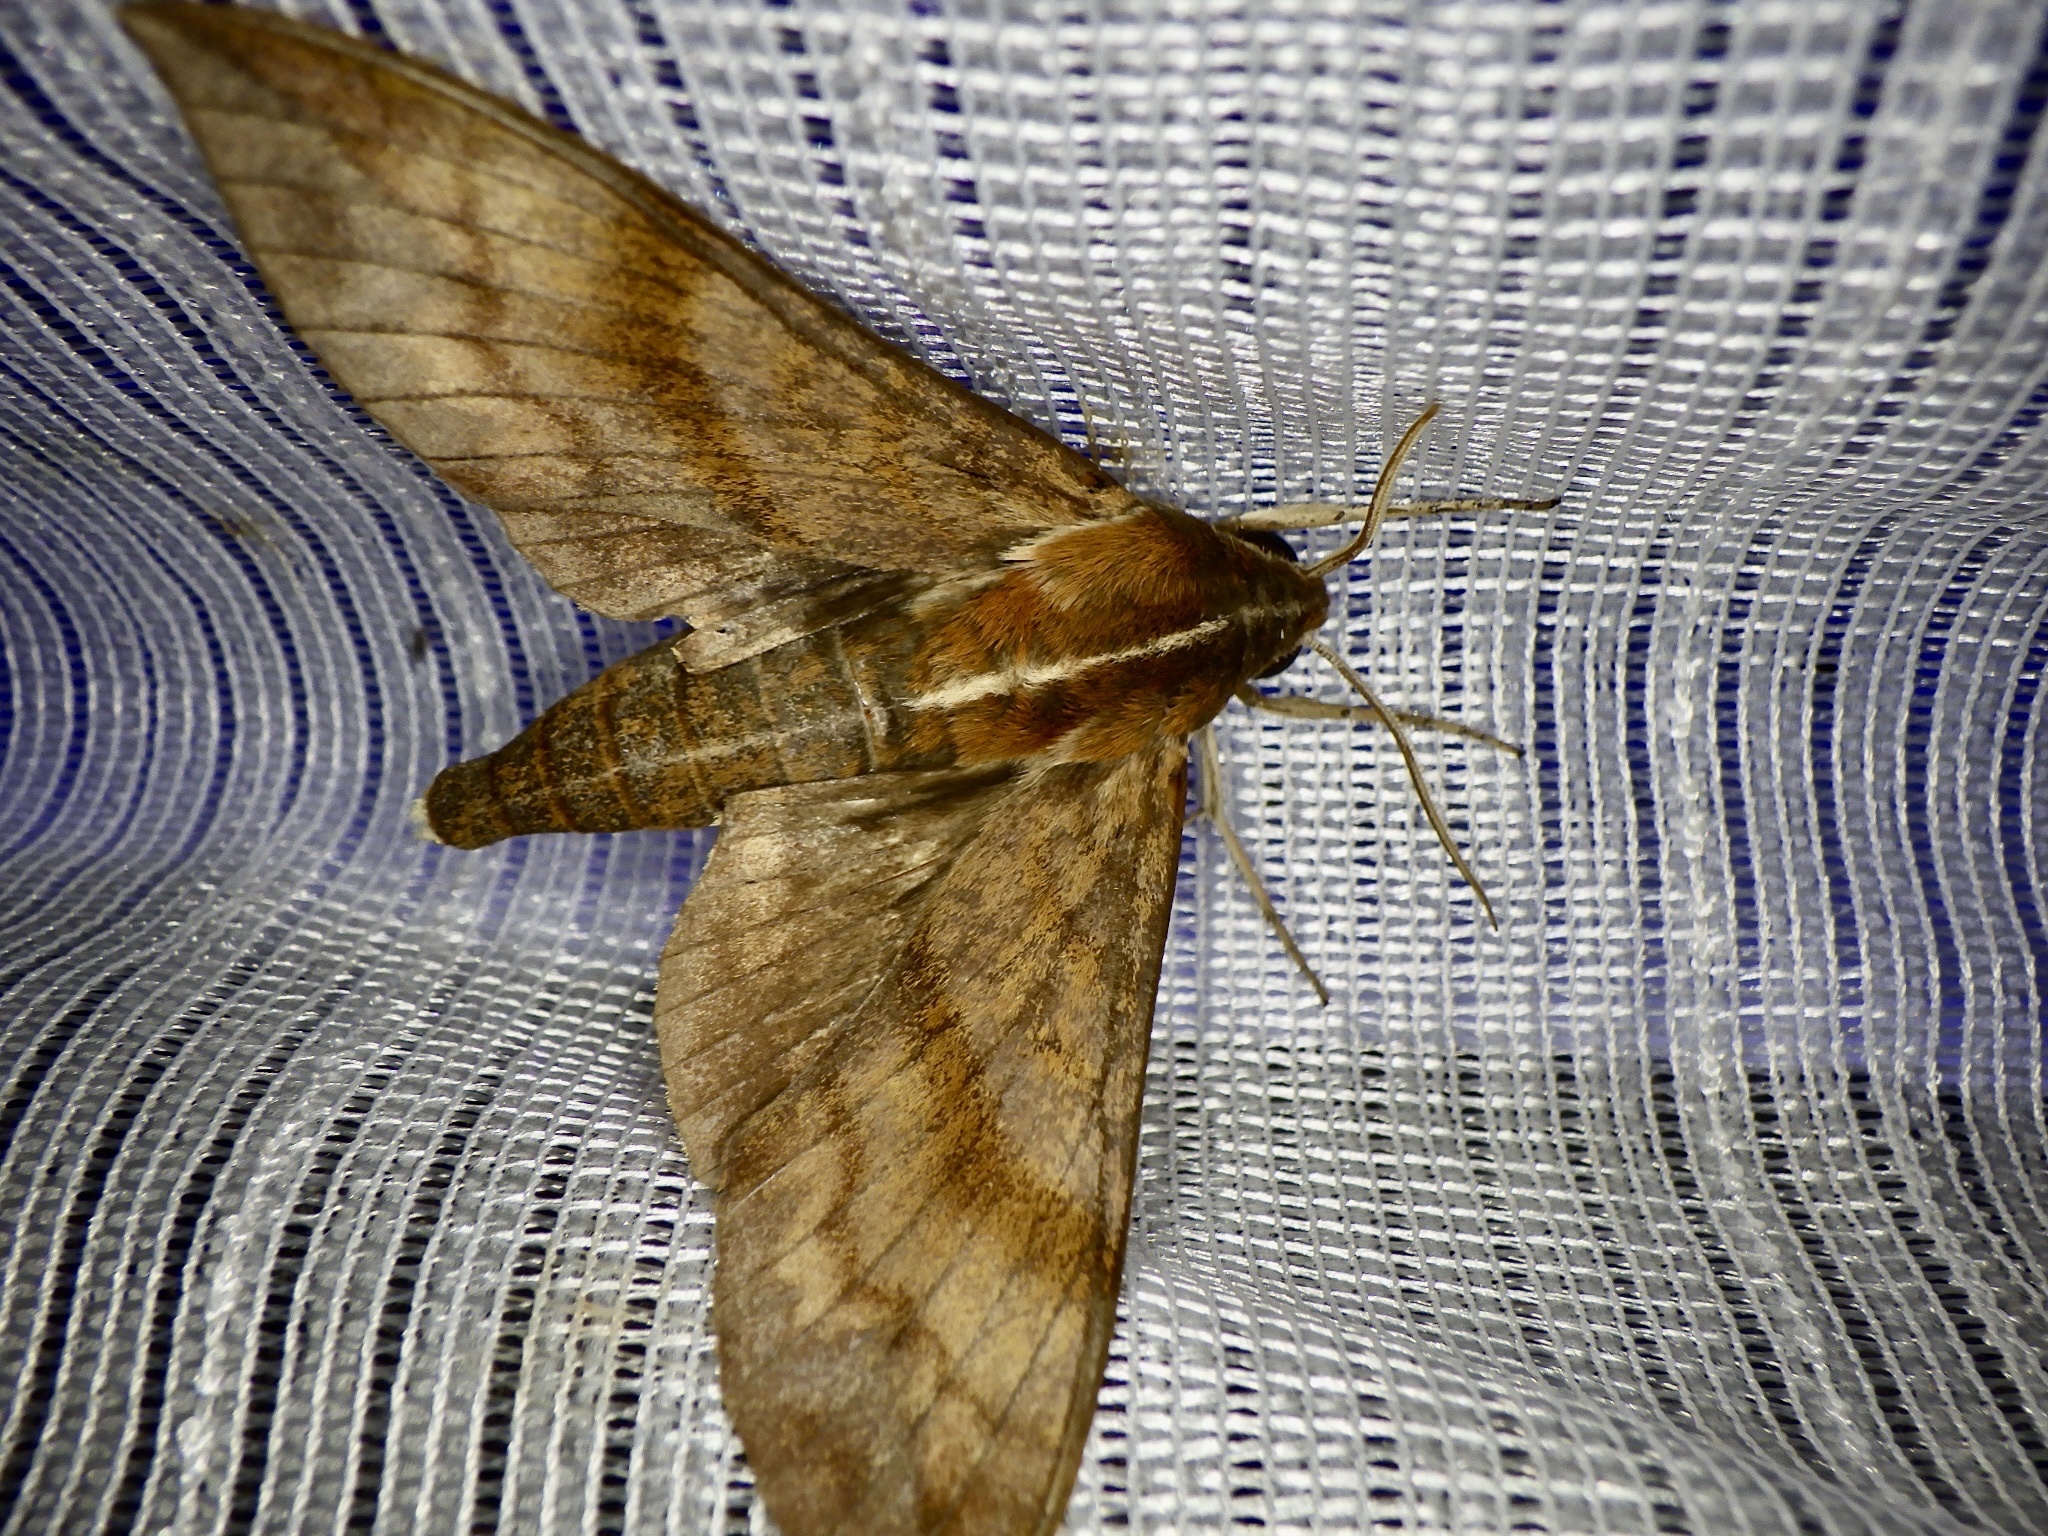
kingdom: Animalia
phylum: Arthropoda
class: Insecta
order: Lepidoptera
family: Sphingidae
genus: Ampelophaga
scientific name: Ampelophaga rubiginosa
